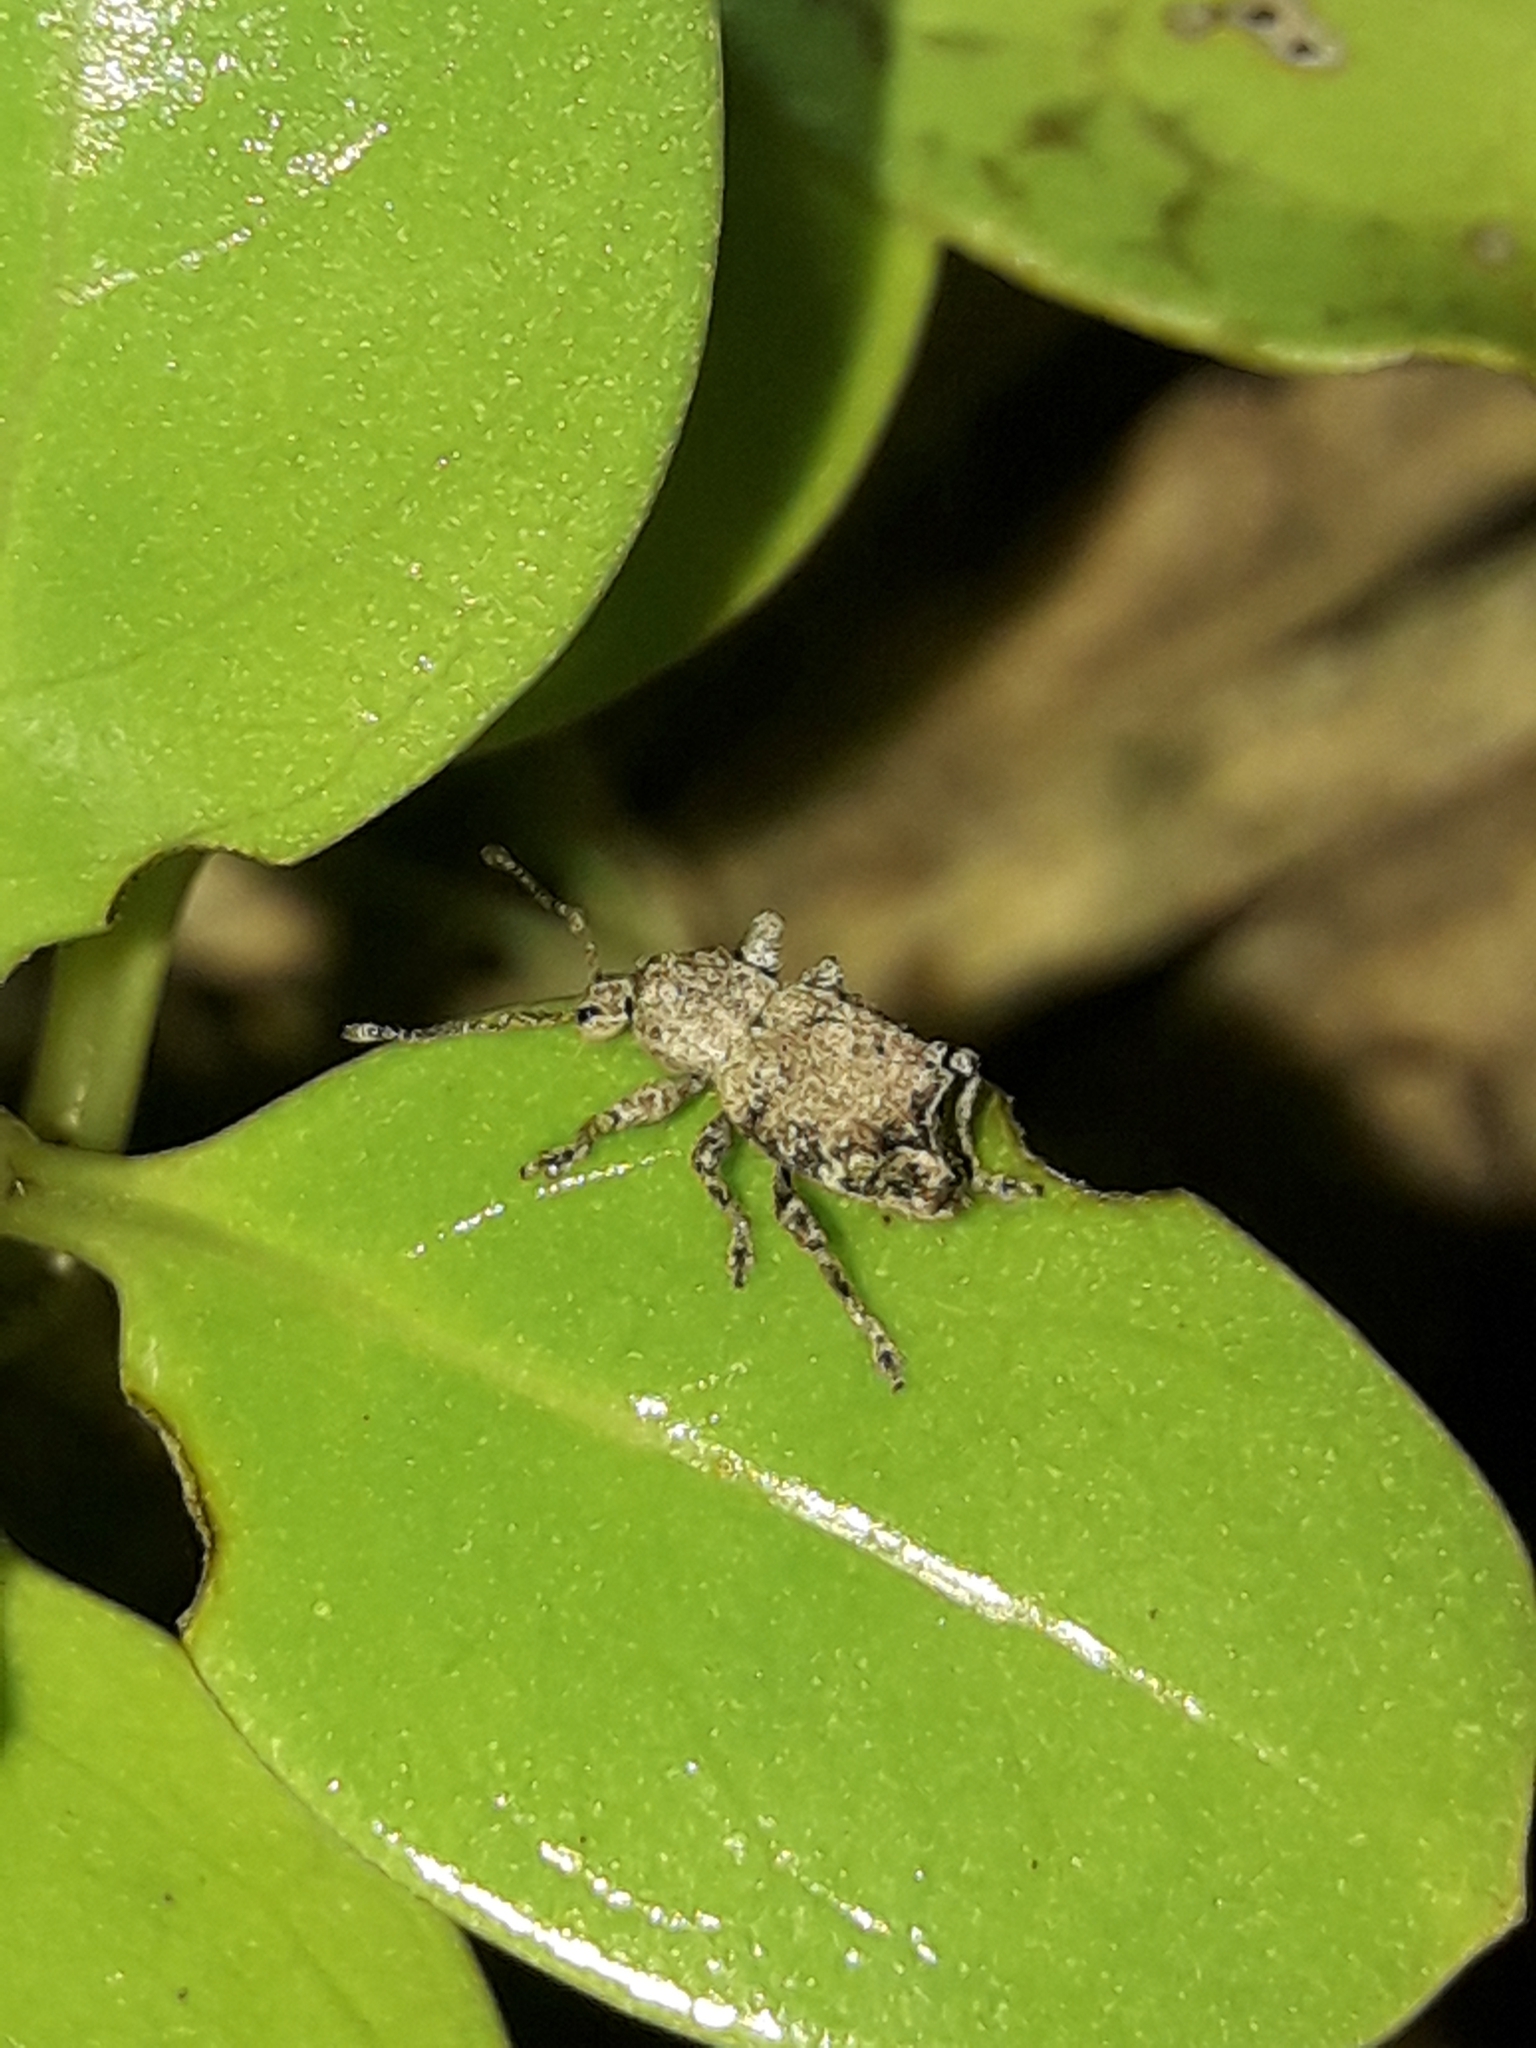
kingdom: Animalia
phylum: Arthropoda
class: Insecta
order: Coleoptera
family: Curculionidae
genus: Chalepistes
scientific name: Chalepistes costifer
